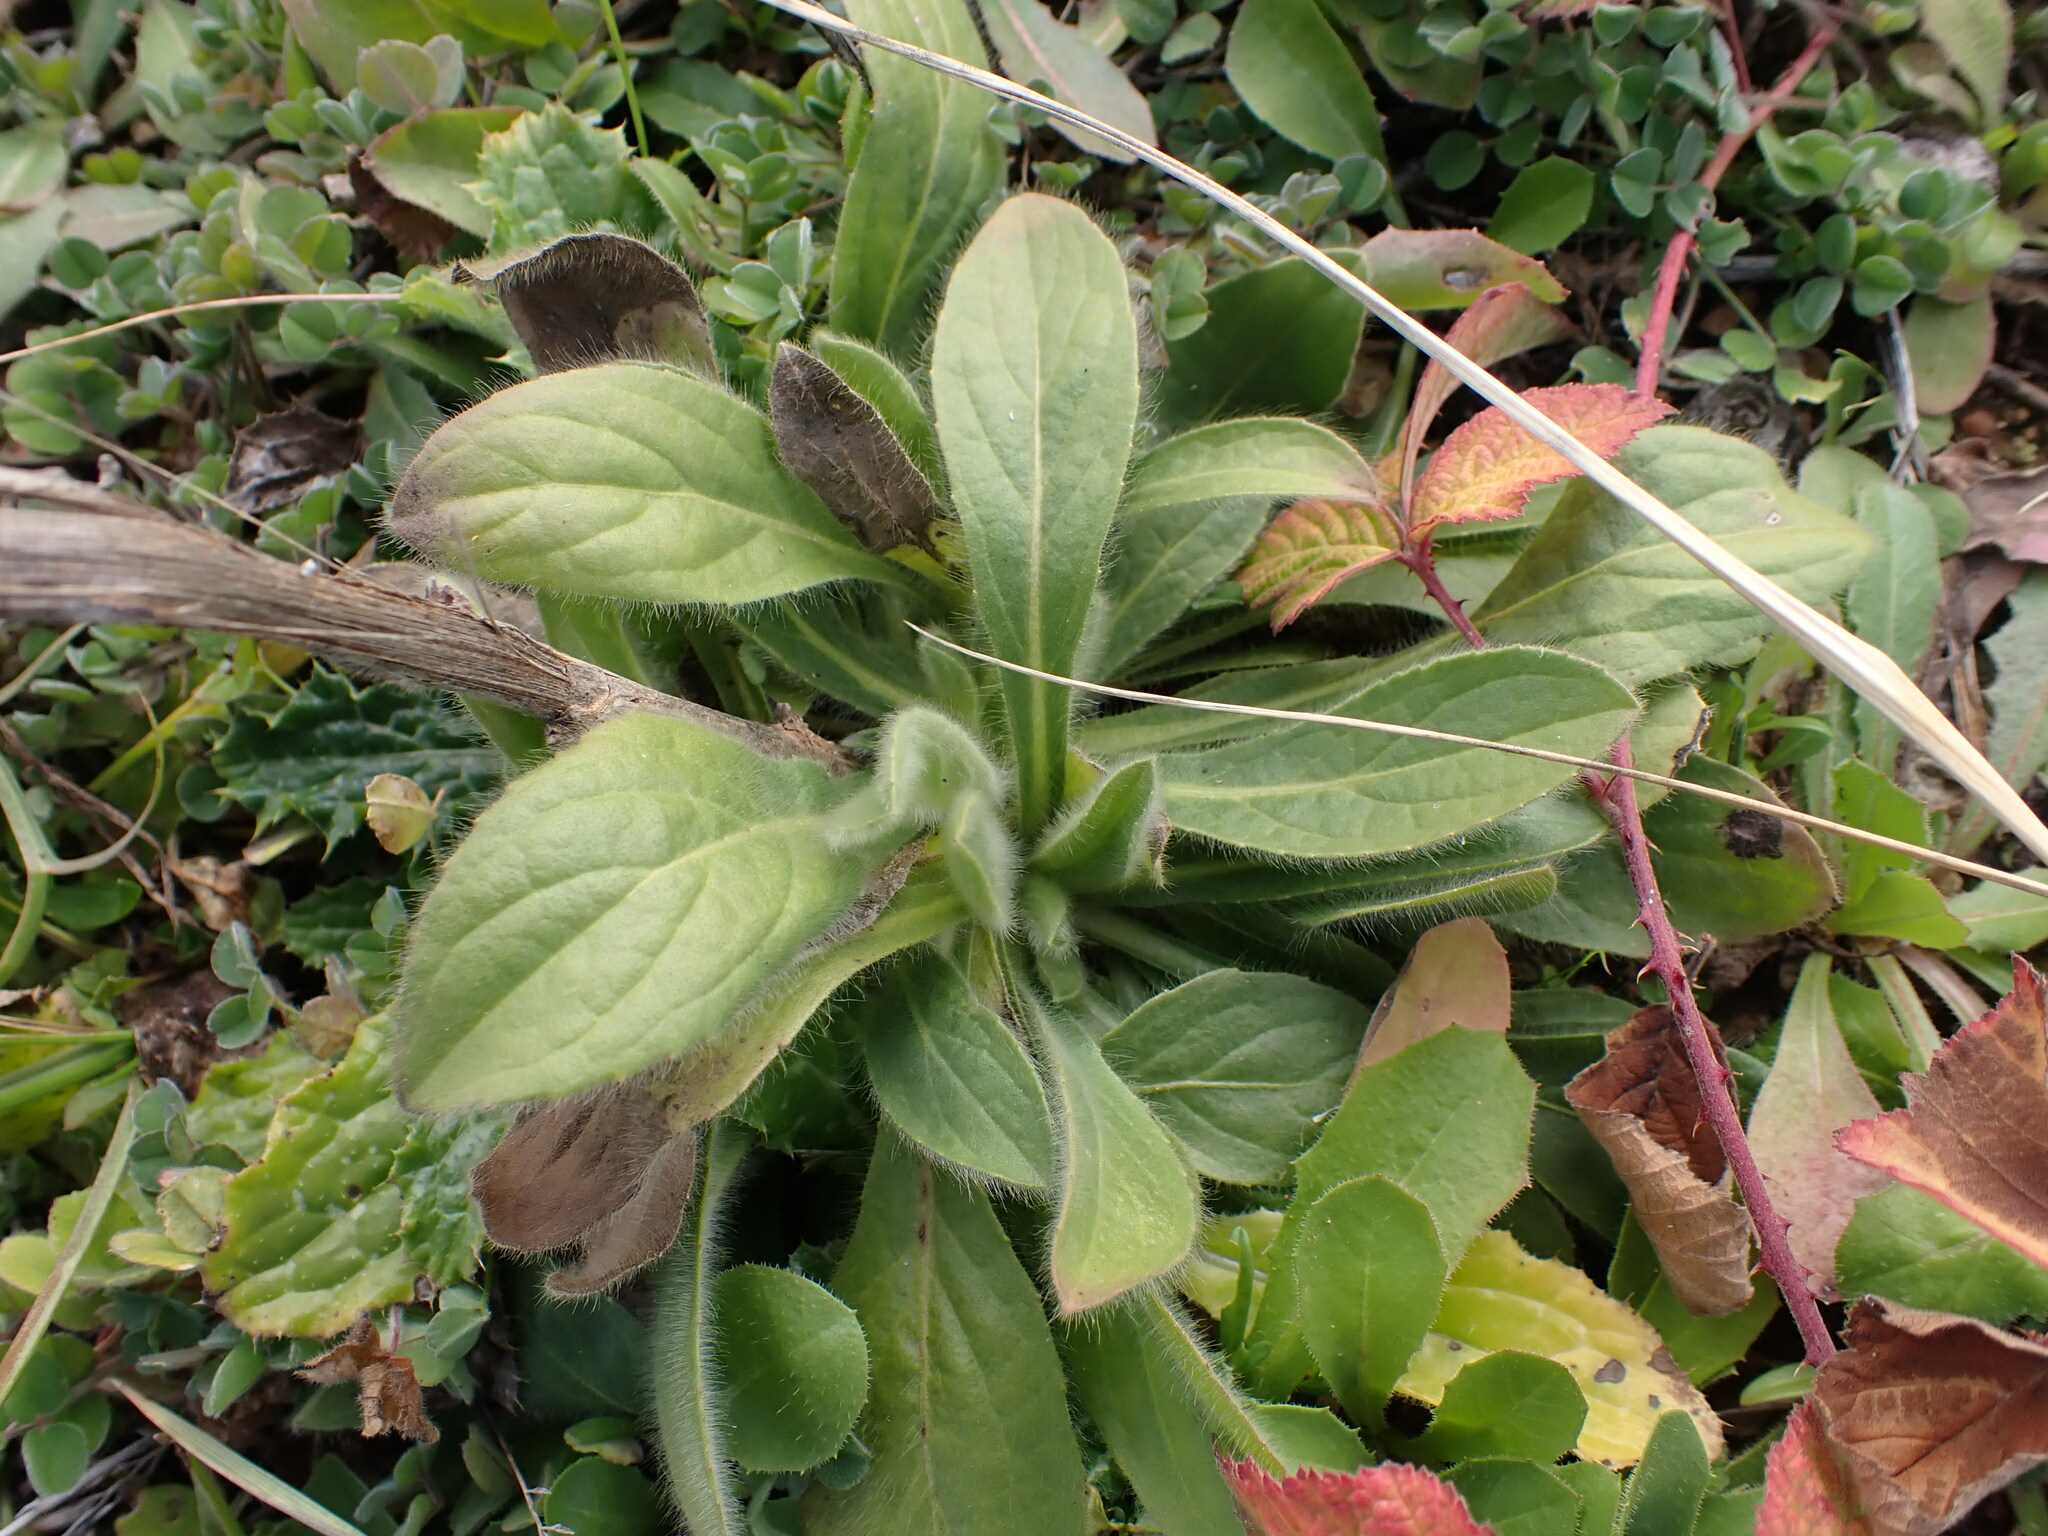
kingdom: Plantae
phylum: Tracheophyta
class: Magnoliopsida
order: Asterales
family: Asteraceae
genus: Pallenis
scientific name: Pallenis spinosa
